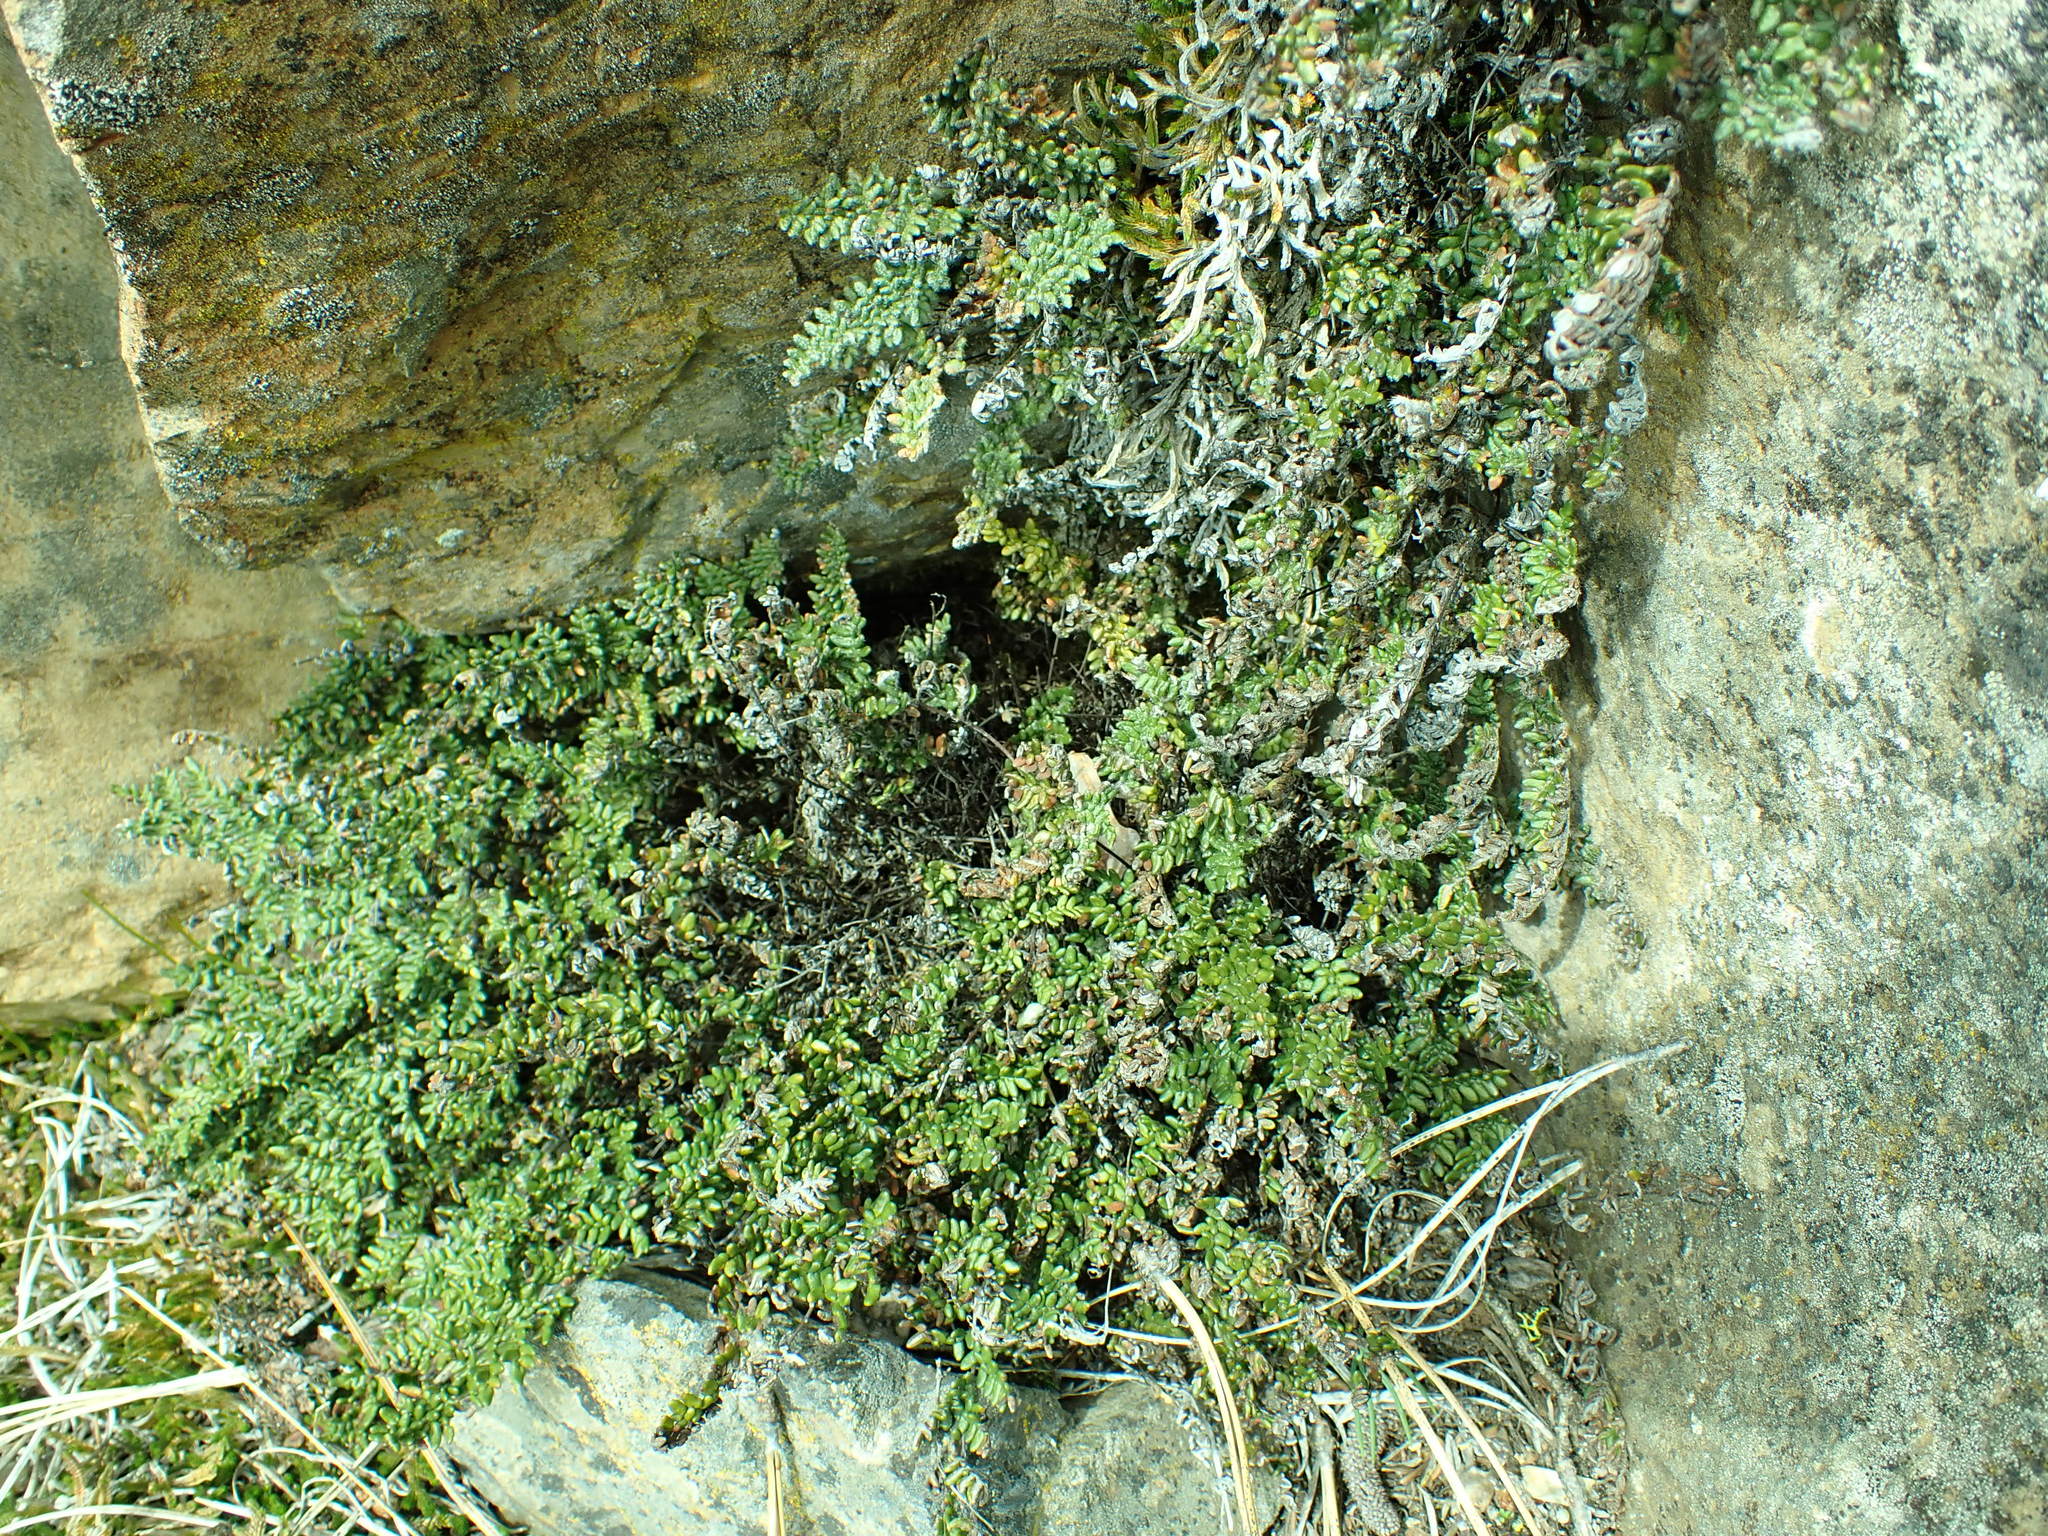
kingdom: Plantae
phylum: Tracheophyta
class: Polypodiopsida
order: Polypodiales
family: Pteridaceae
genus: Myriopteris
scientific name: Myriopteris gracillima
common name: Lace fern
